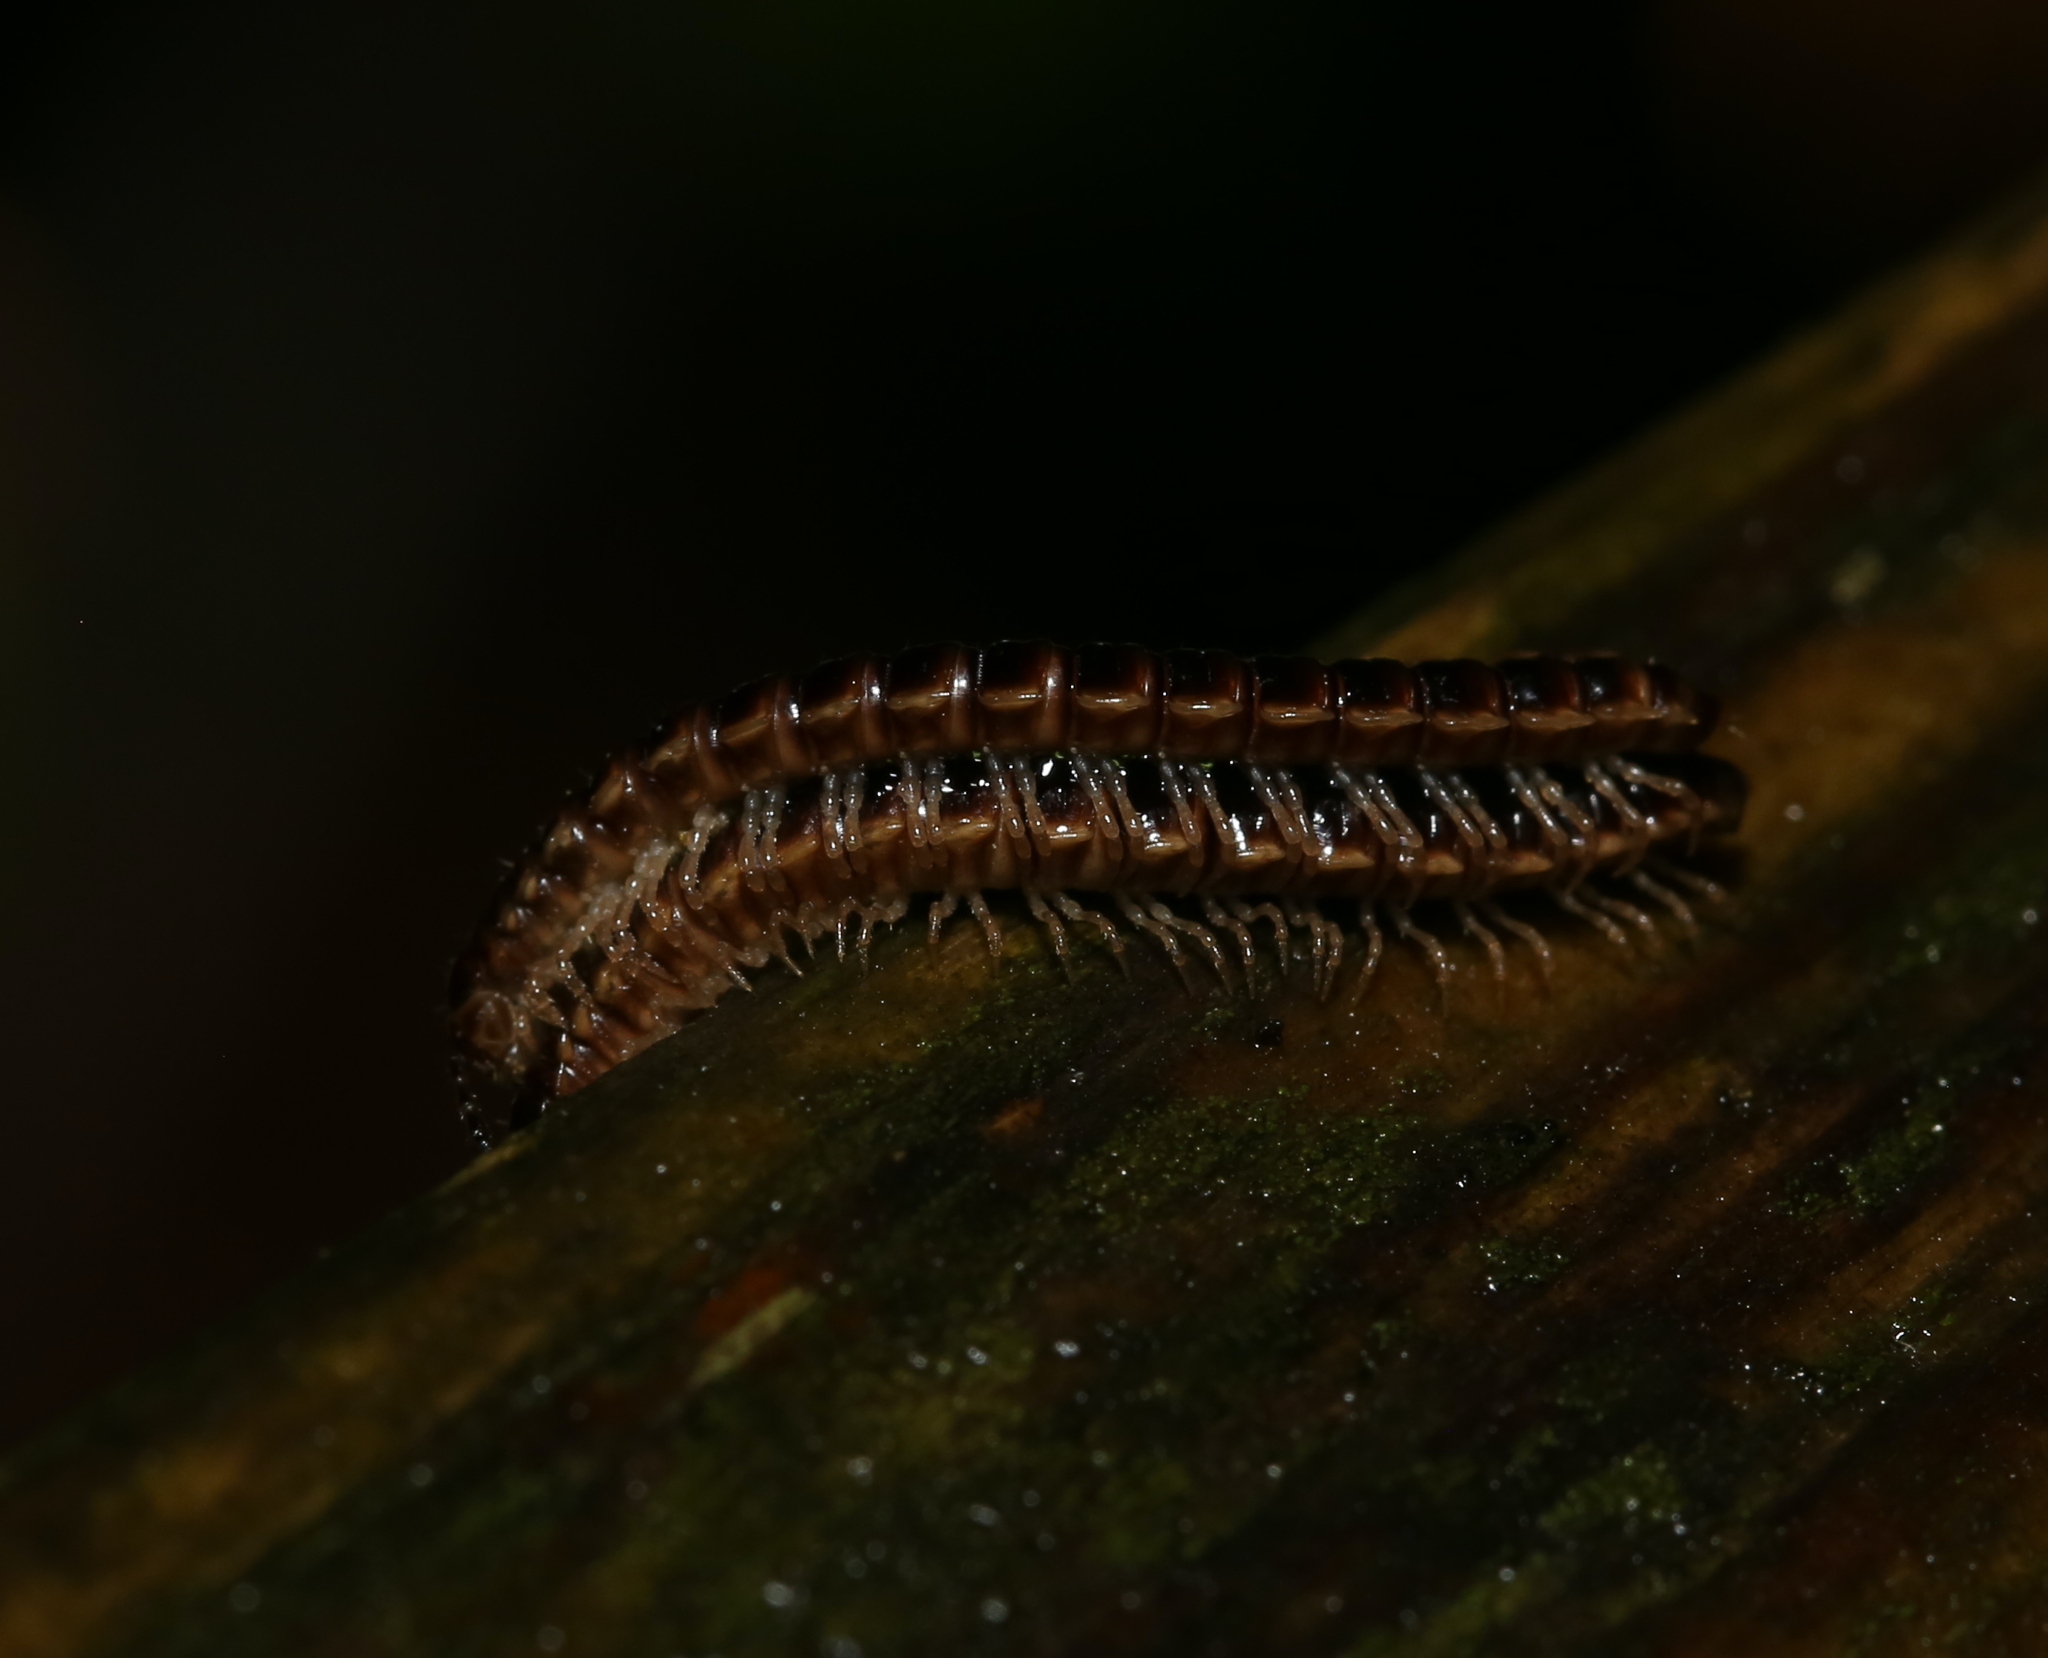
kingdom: Animalia
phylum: Arthropoda
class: Diplopoda
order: Polydesmida
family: Paradoxosomatidae
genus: Oxidus
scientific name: Oxidus gracilis
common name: Greenhouse millipede
